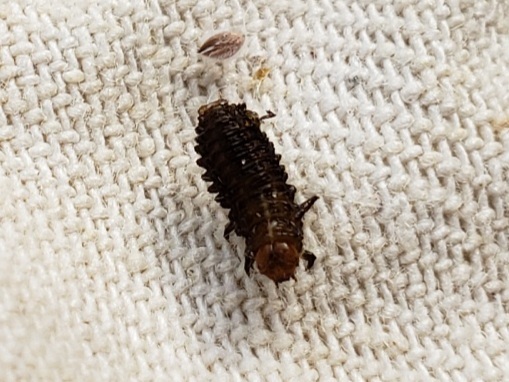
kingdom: Animalia
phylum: Arthropoda
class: Insecta
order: Coleoptera
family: Chrysomelidae
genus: Neolochmaea
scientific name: Neolochmaea dilatipennis
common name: Skeletonizing leaf beetle
